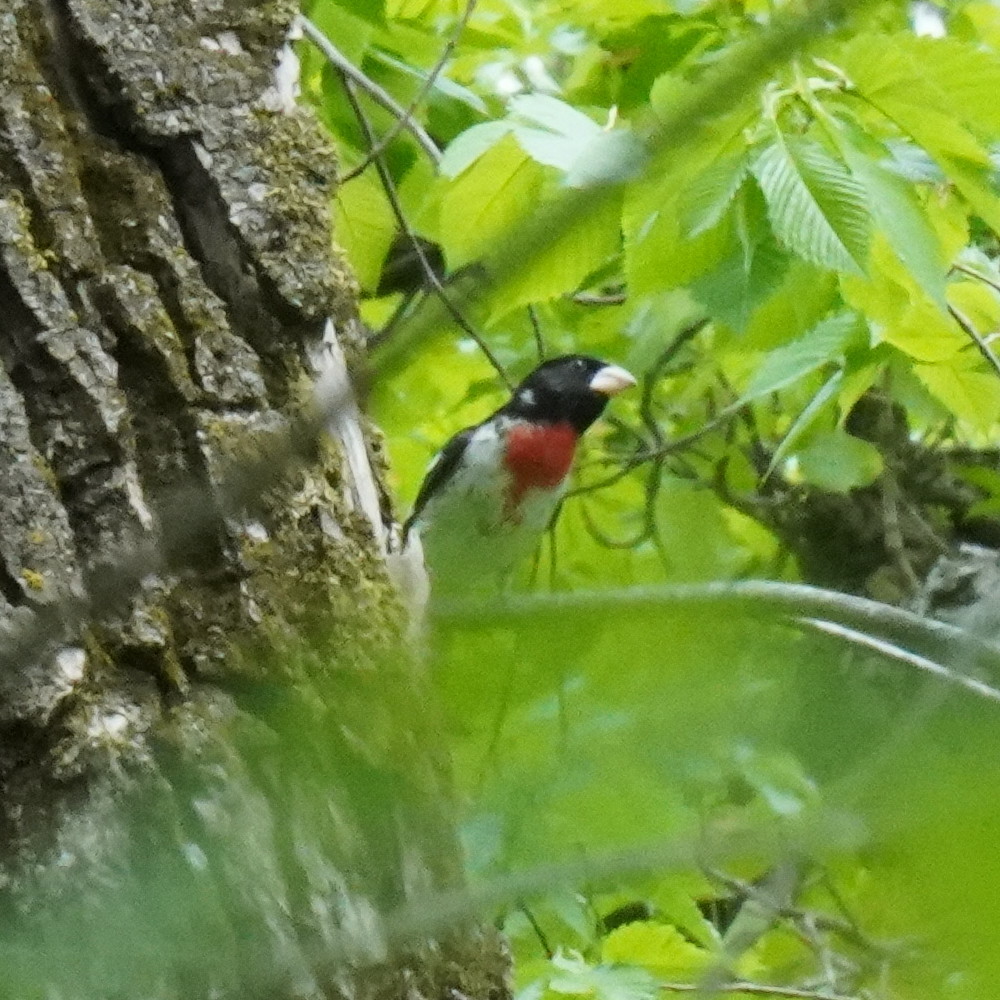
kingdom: Animalia
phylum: Chordata
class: Aves
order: Passeriformes
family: Cardinalidae
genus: Pheucticus
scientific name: Pheucticus ludovicianus
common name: Rose-breasted grosbeak
